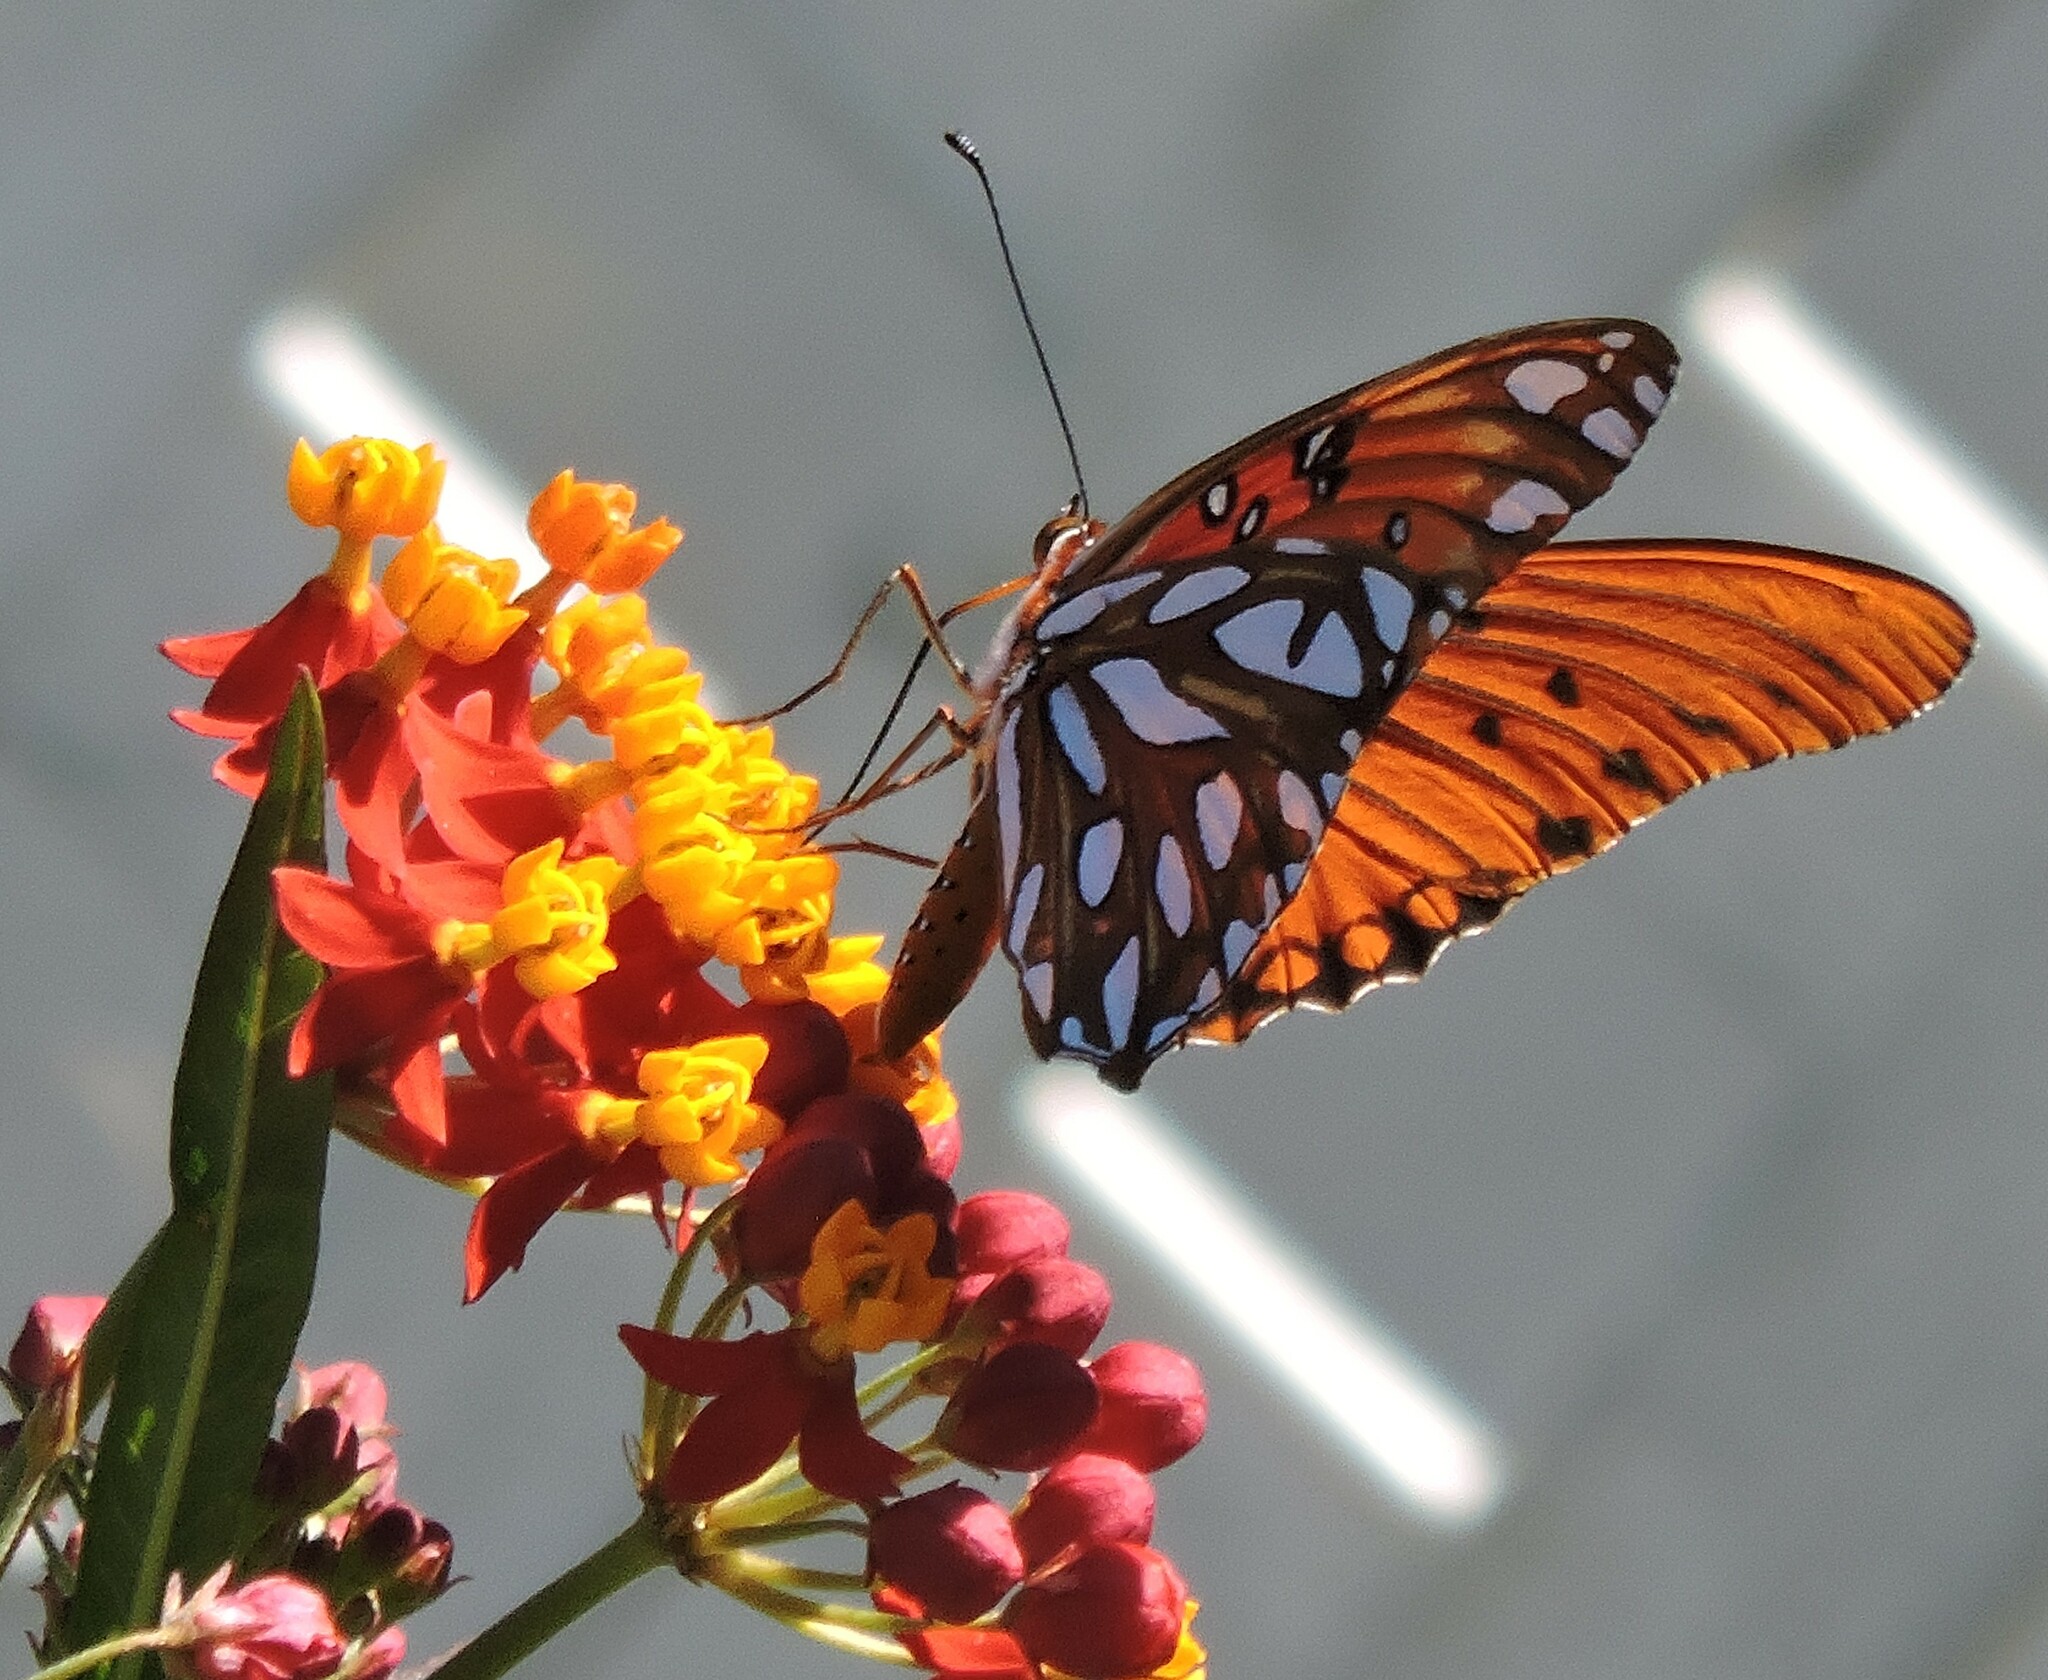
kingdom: Animalia
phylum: Arthropoda
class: Insecta
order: Lepidoptera
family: Nymphalidae
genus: Dione
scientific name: Dione vanillae
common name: Gulf fritillary
